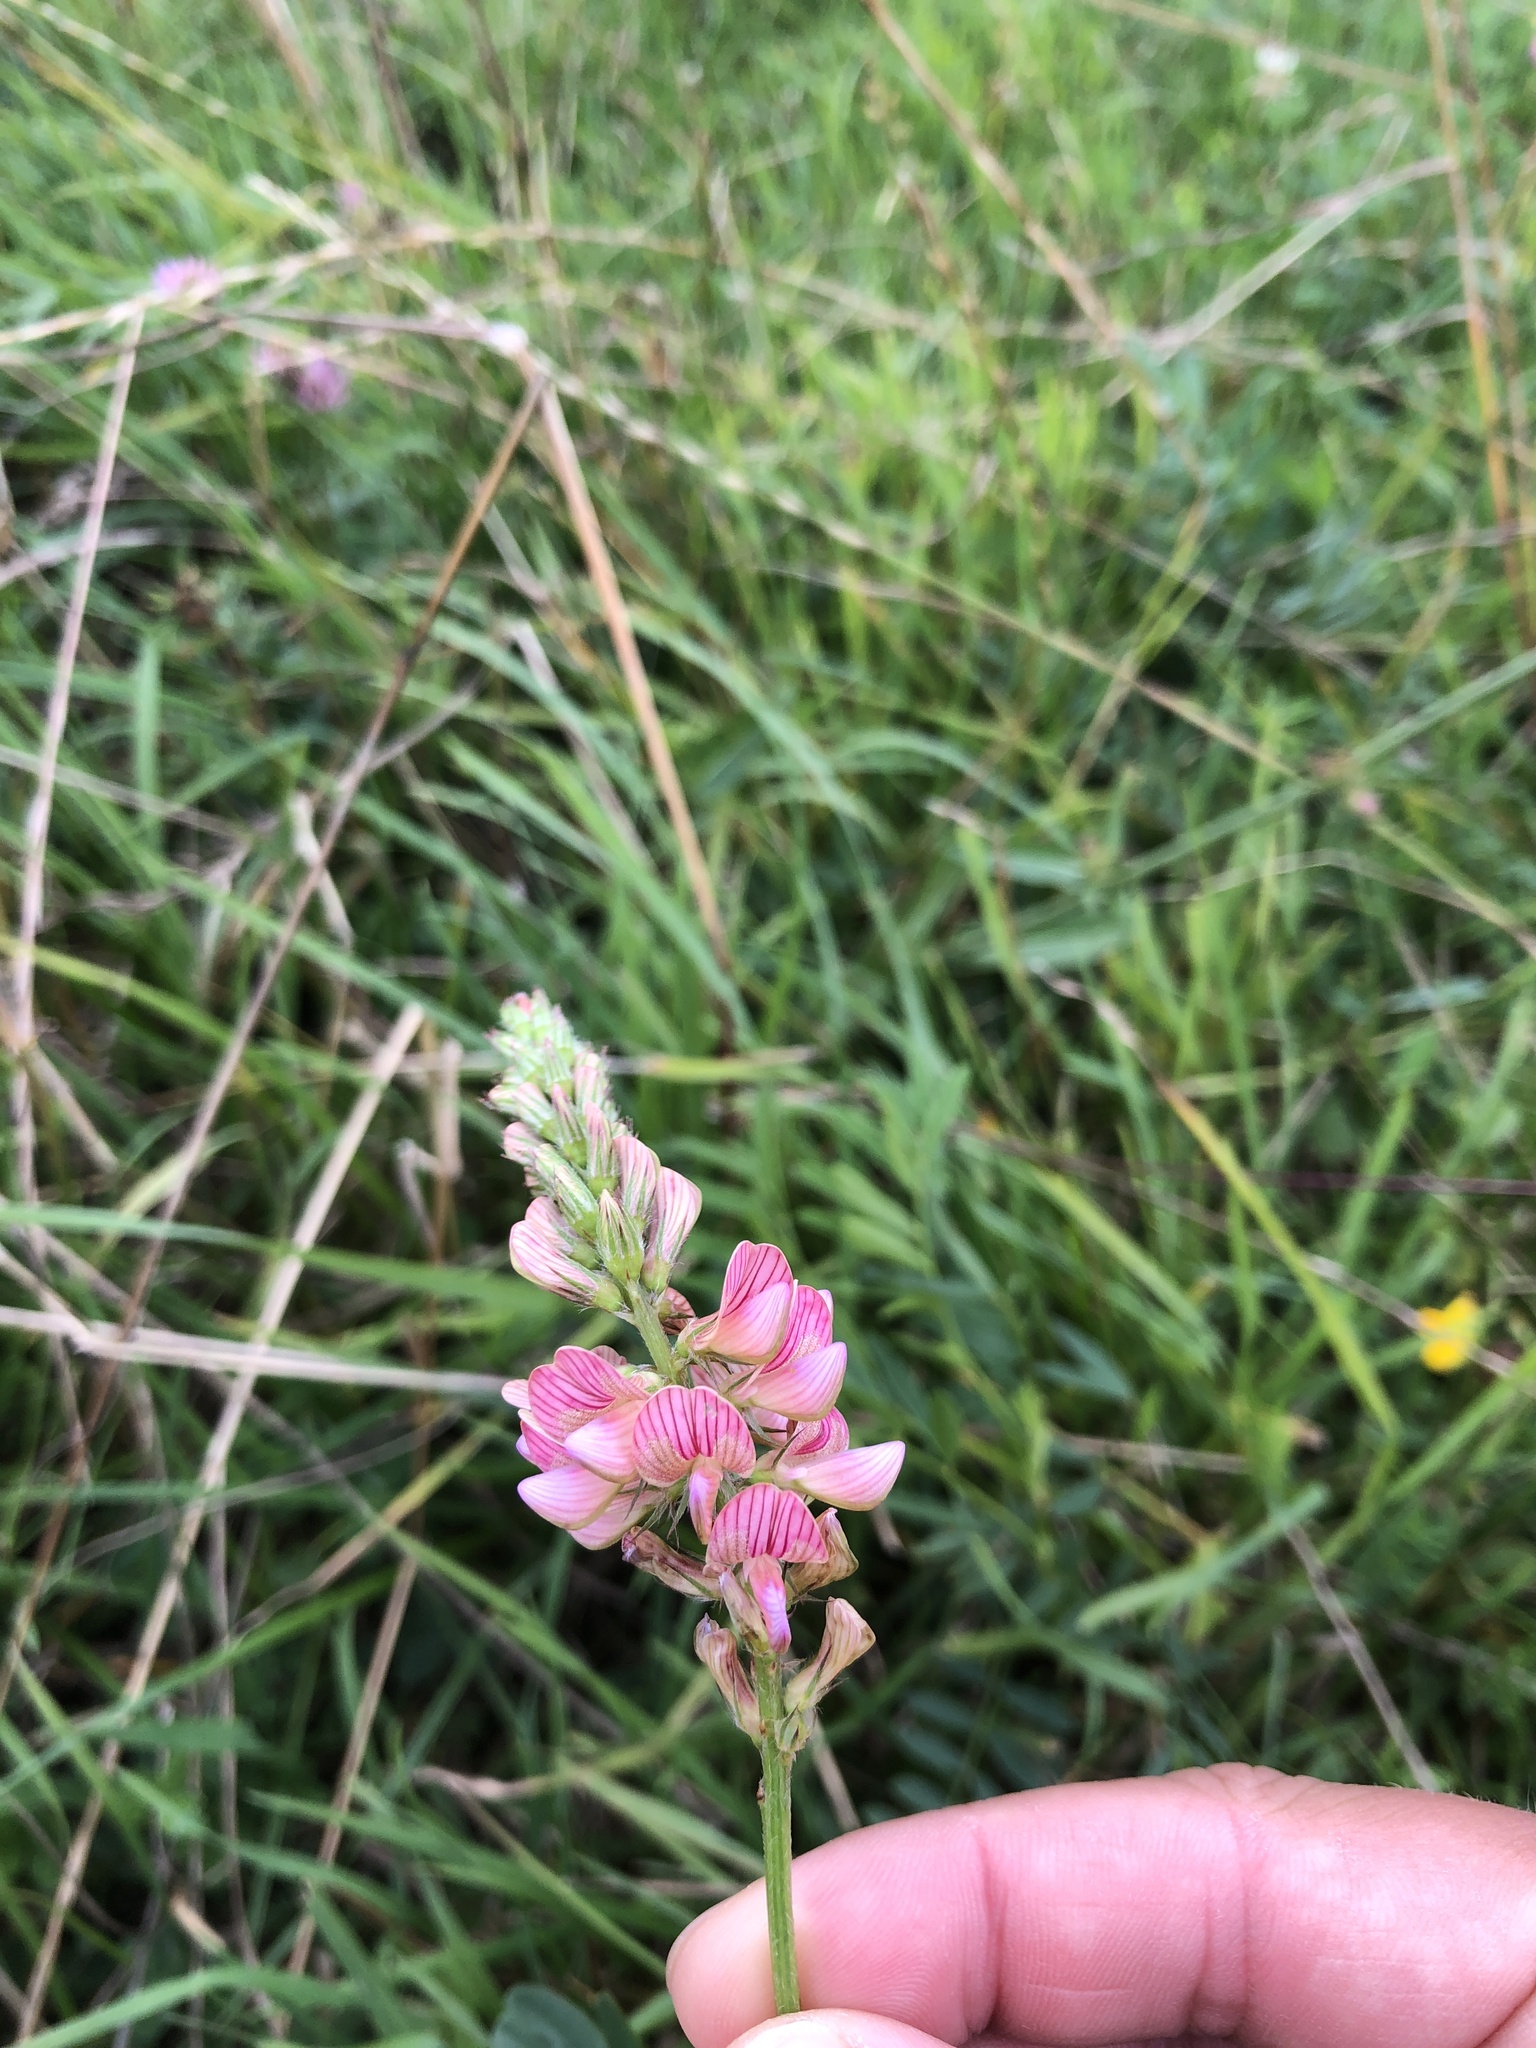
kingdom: Plantae
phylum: Tracheophyta
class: Magnoliopsida
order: Fabales
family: Fabaceae
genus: Onobrychis
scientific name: Onobrychis viciifolia
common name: Sainfoin
